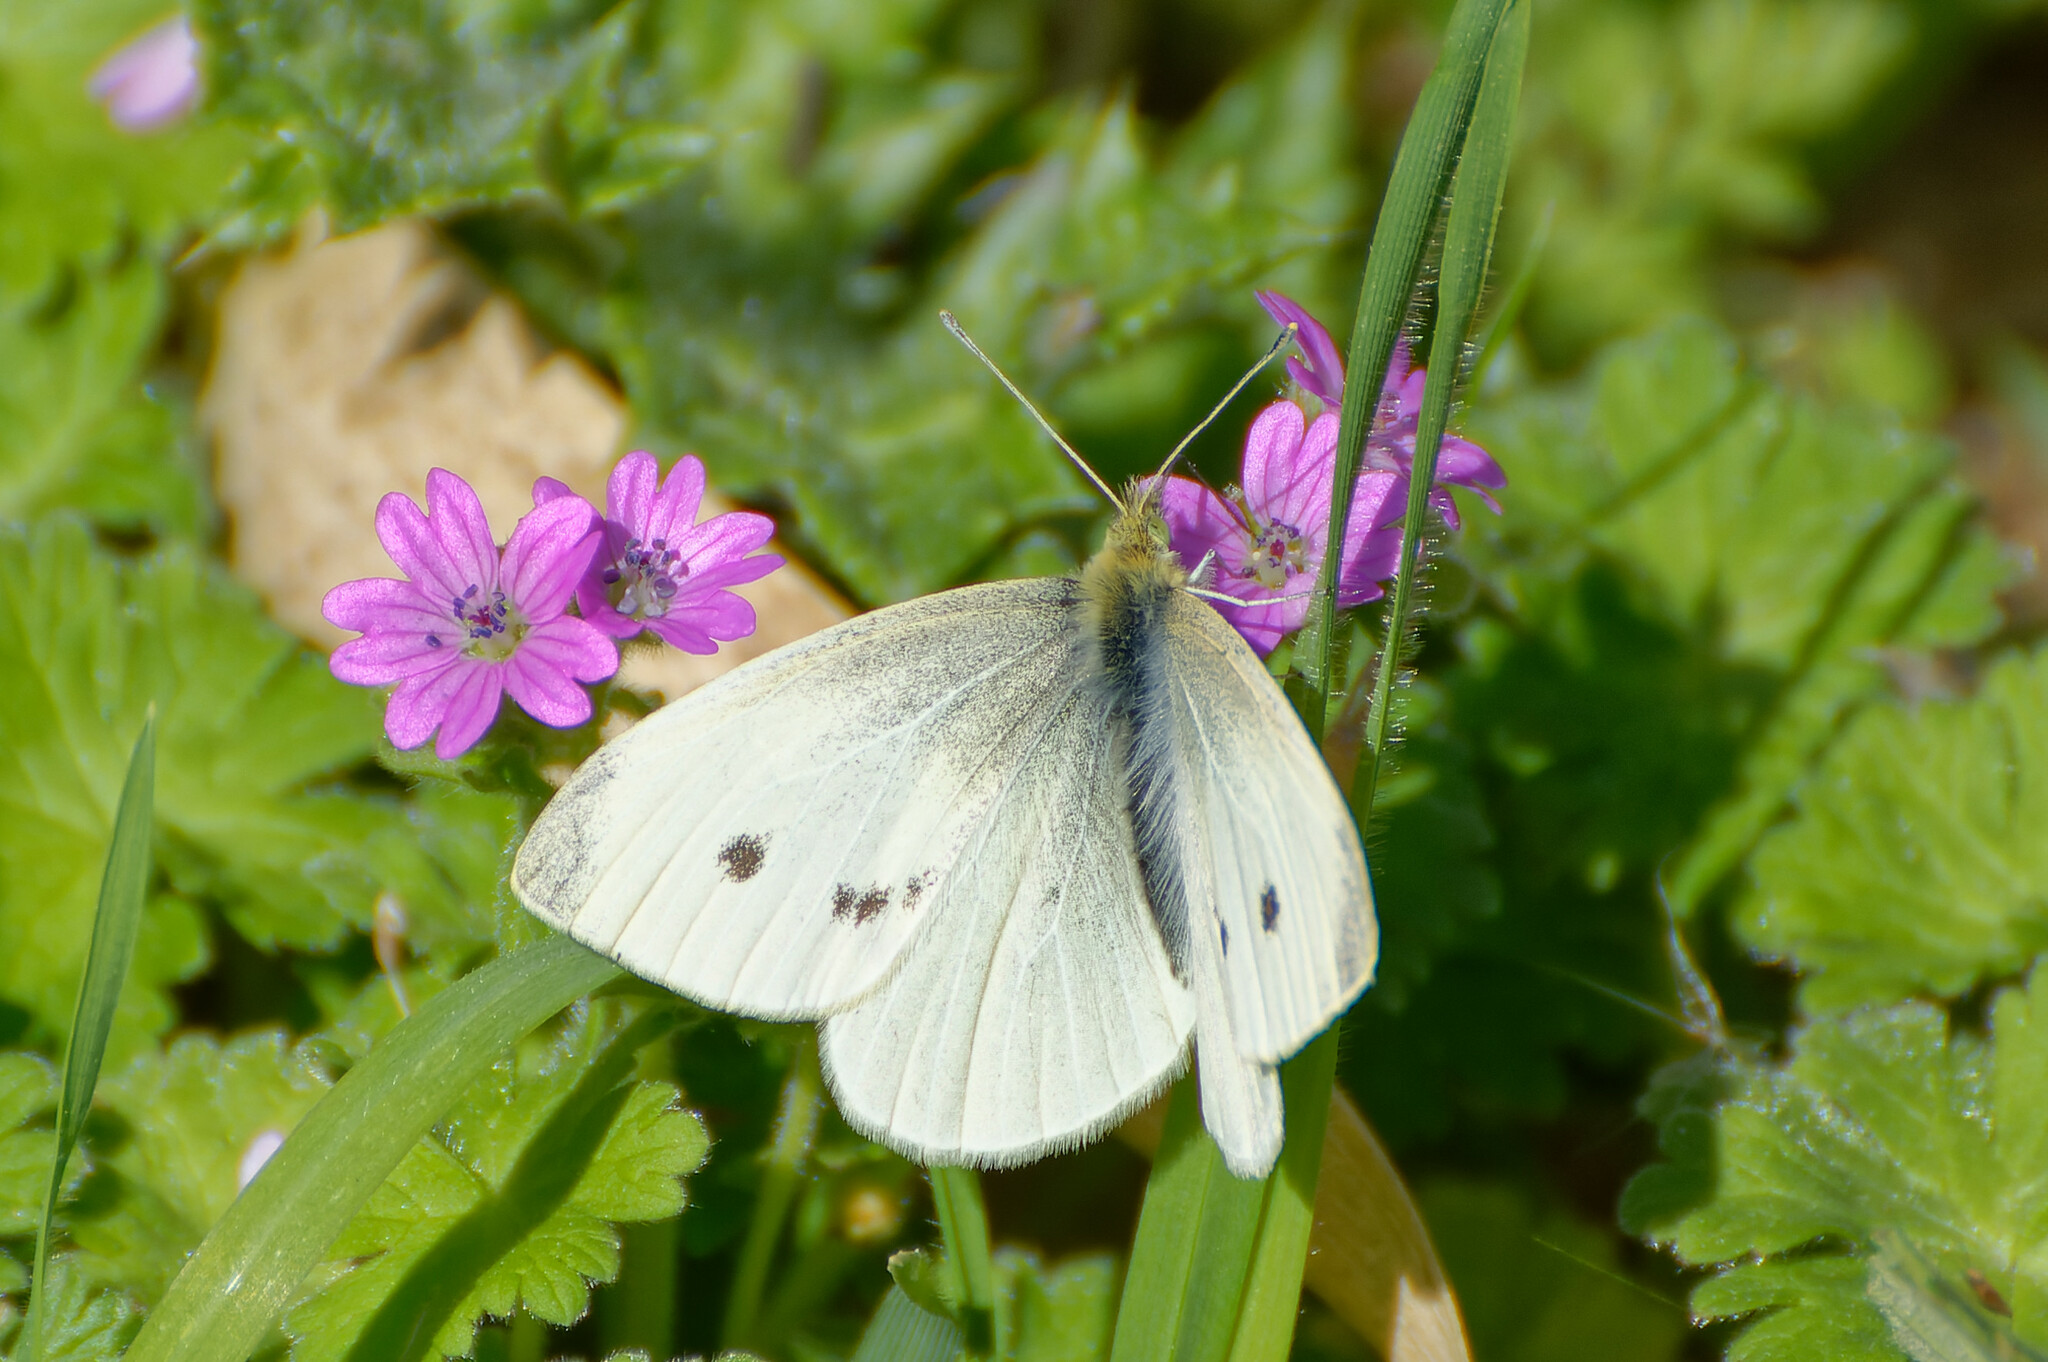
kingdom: Animalia
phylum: Arthropoda
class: Insecta
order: Lepidoptera
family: Pieridae
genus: Pieris
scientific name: Pieris rapae
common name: Small white
